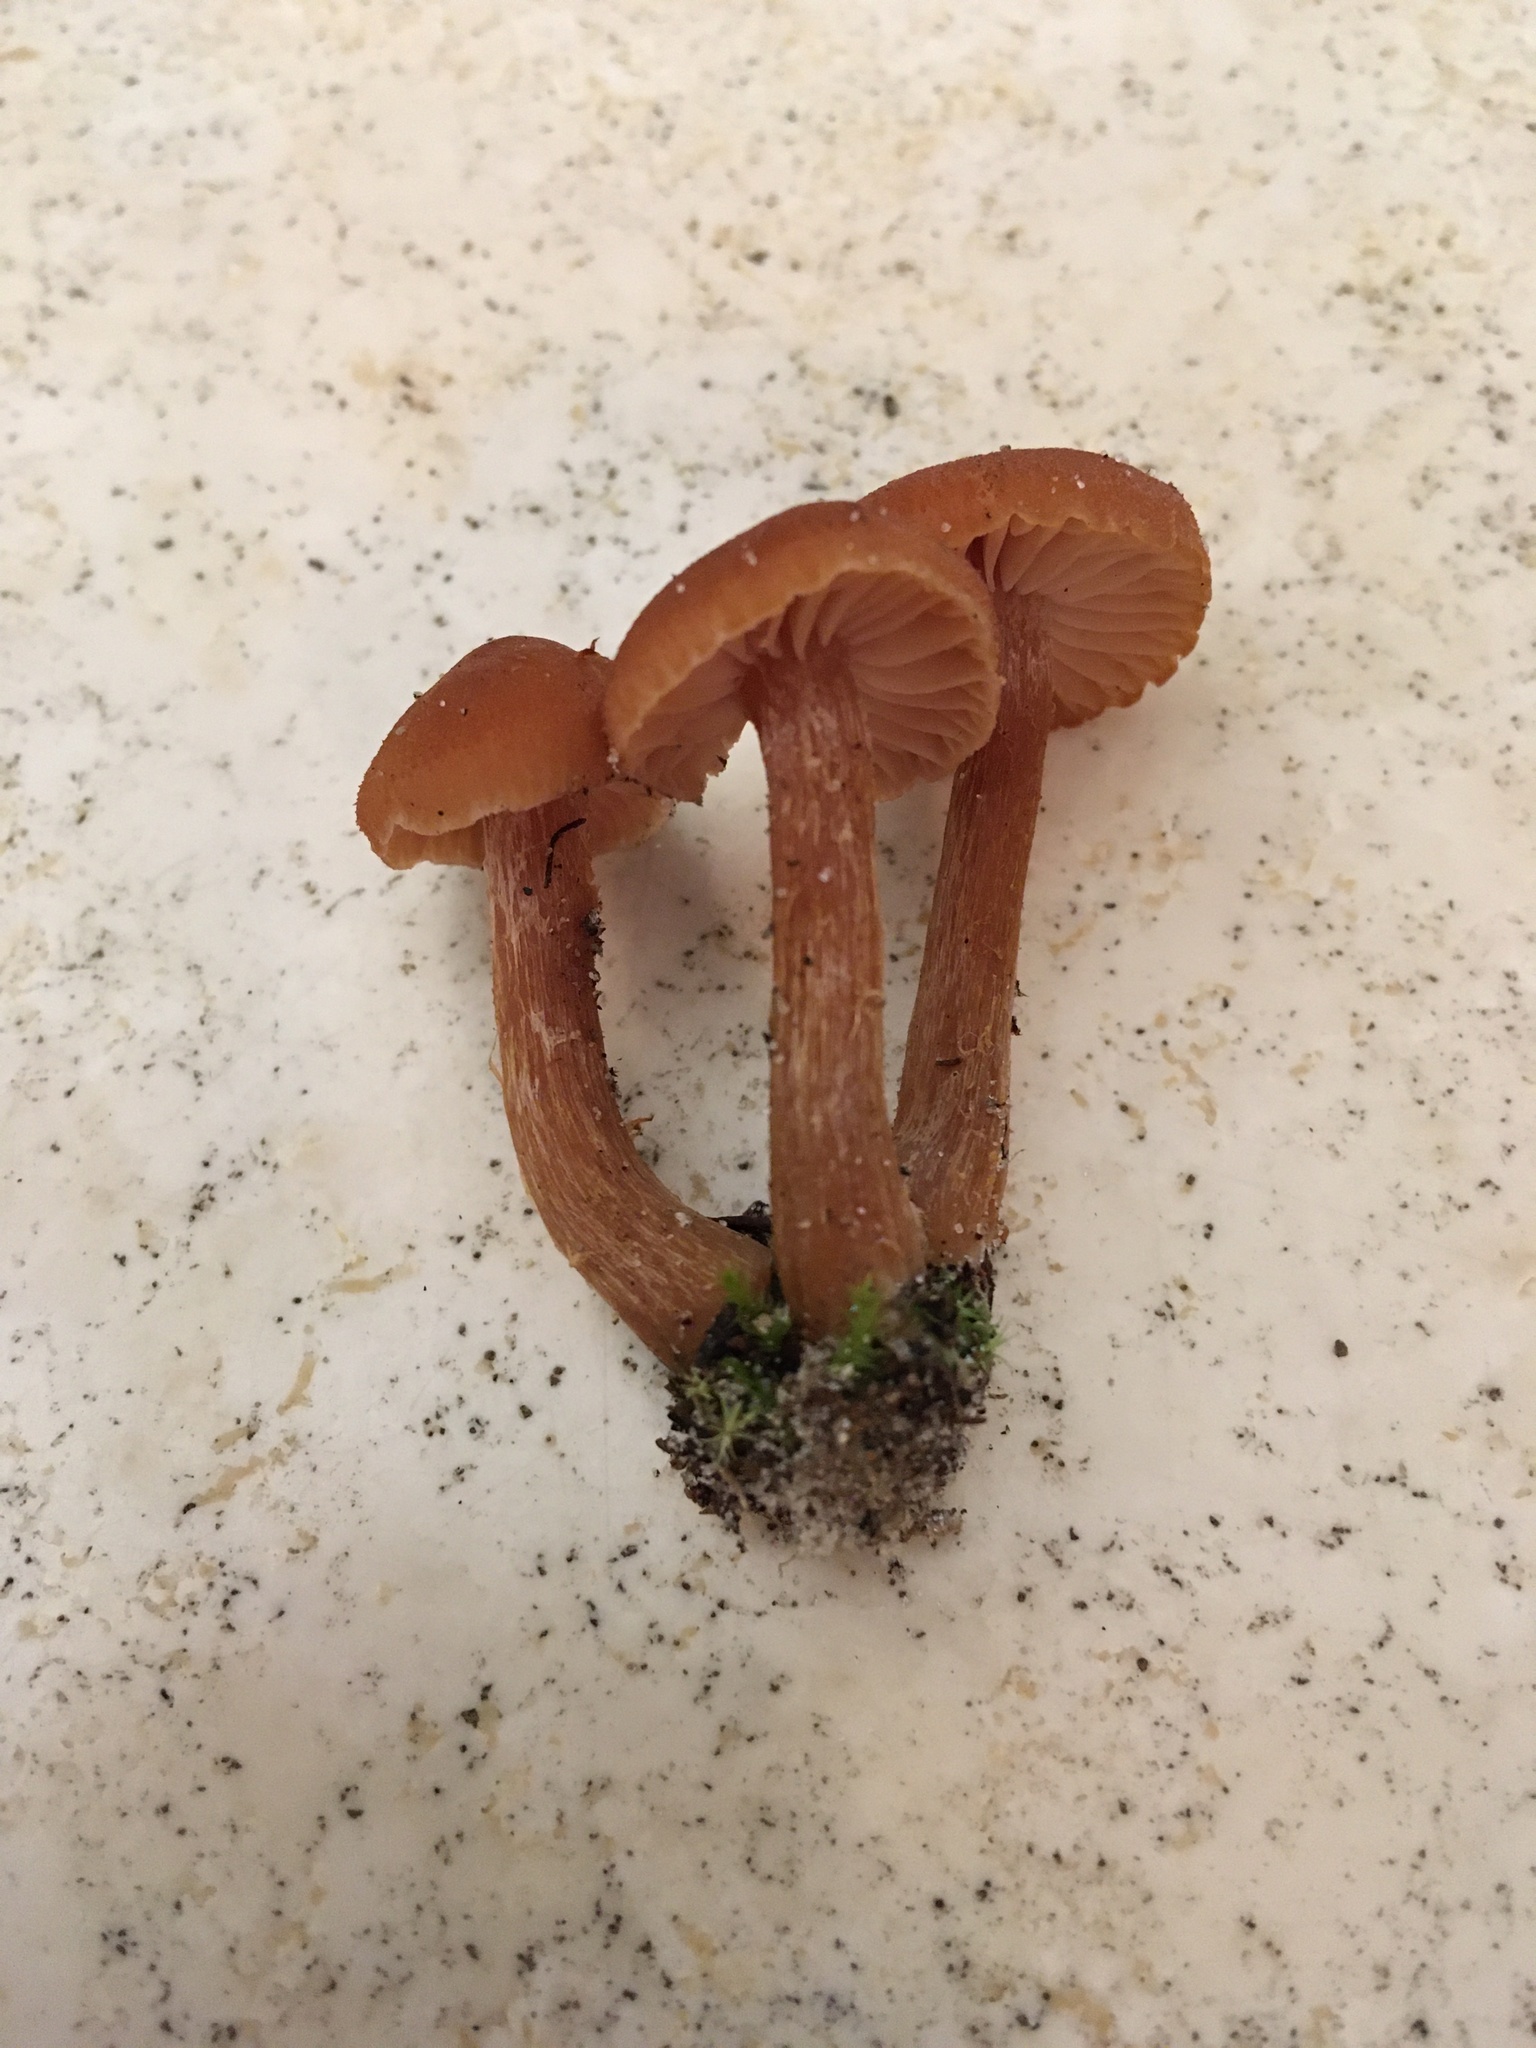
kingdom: Fungi
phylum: Basidiomycota
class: Agaricomycetes
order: Agaricales
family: Hydnangiaceae
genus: Laccaria
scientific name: Laccaria proxima
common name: Scurfy deceiver
